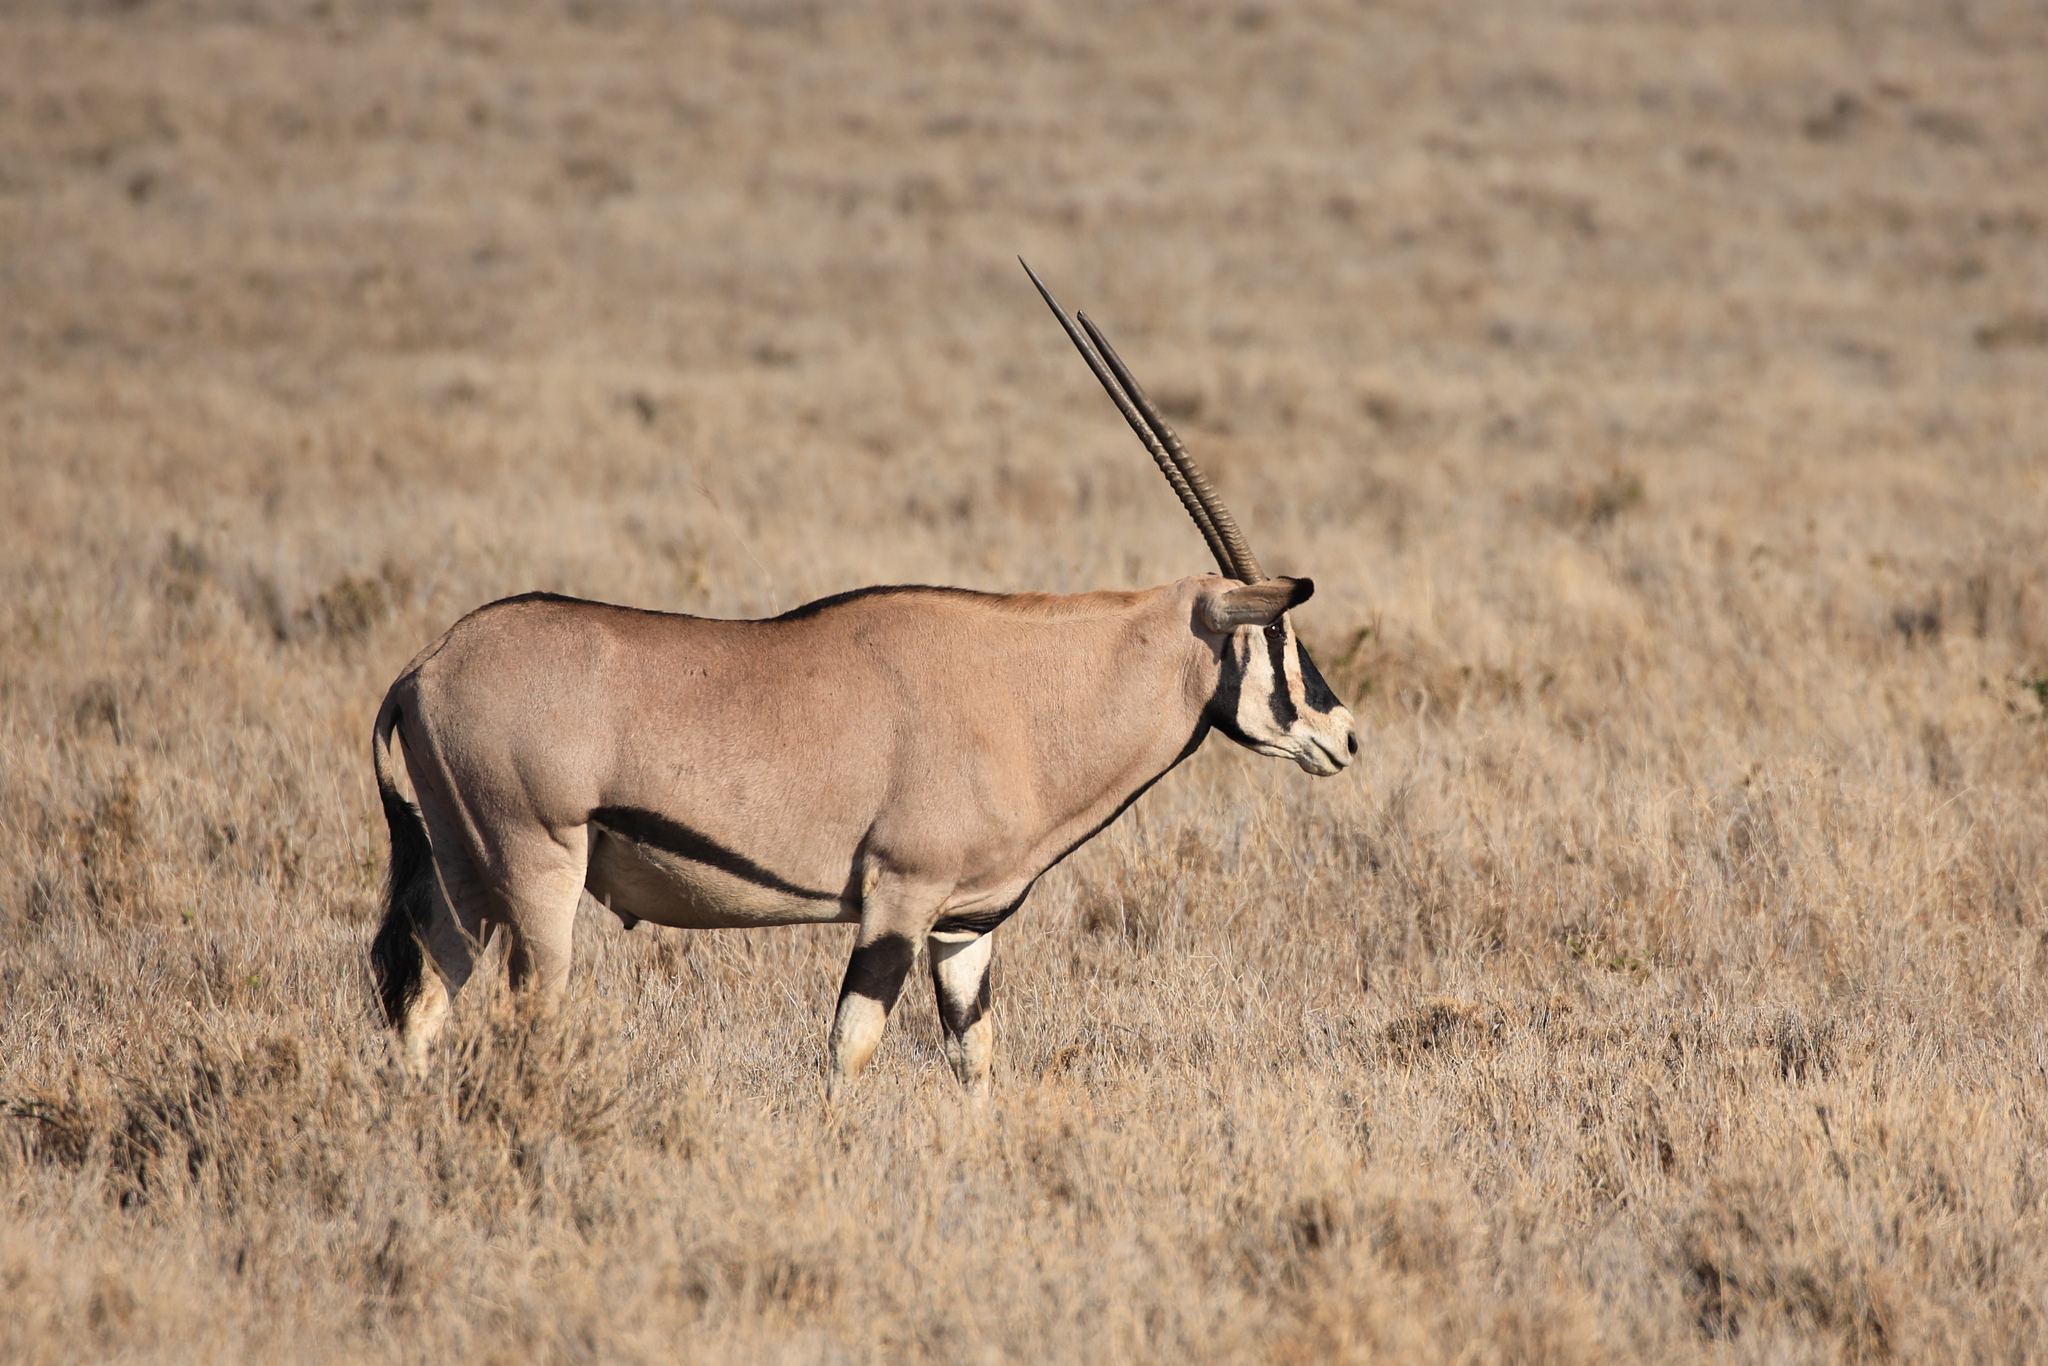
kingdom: Animalia
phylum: Chordata
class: Mammalia
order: Artiodactyla
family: Bovidae
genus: Oryx
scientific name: Oryx beisa
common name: Beisa
